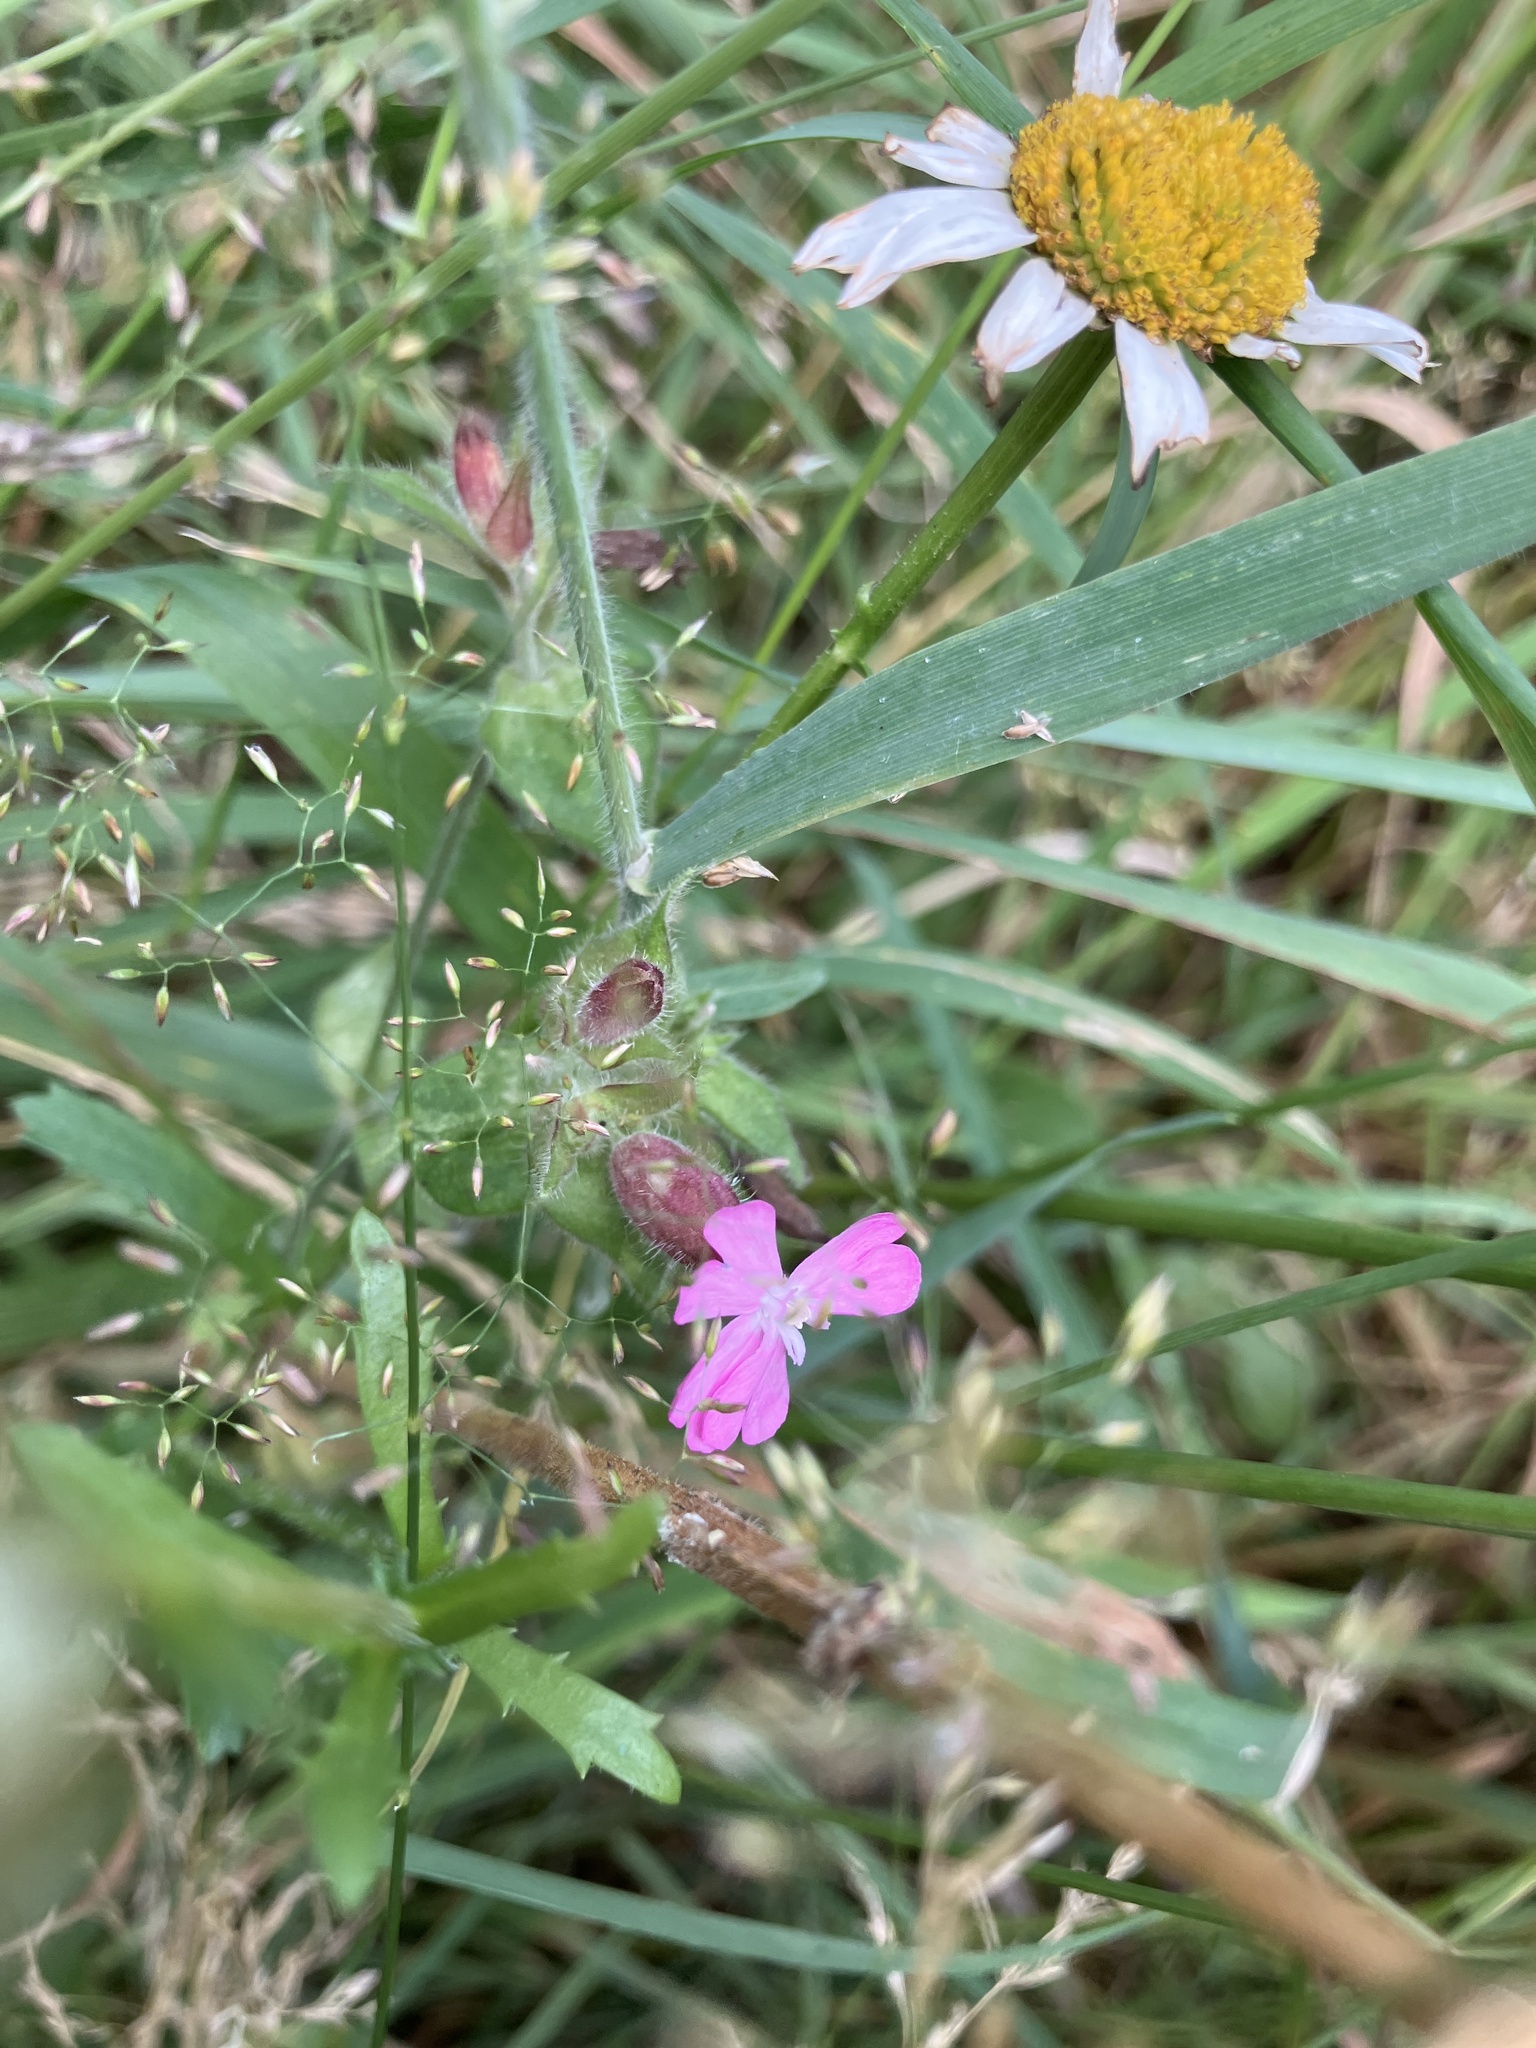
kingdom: Plantae
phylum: Tracheophyta
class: Magnoliopsida
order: Caryophyllales
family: Caryophyllaceae
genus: Silene
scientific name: Silene dioica
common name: Red campion
